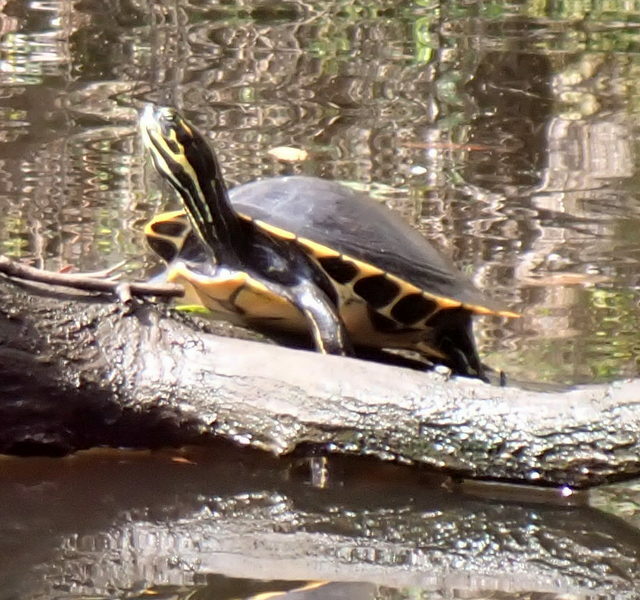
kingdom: Animalia
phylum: Chordata
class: Testudines
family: Emydidae
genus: Pseudemys
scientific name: Pseudemys concinna
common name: Eastern river cooter
